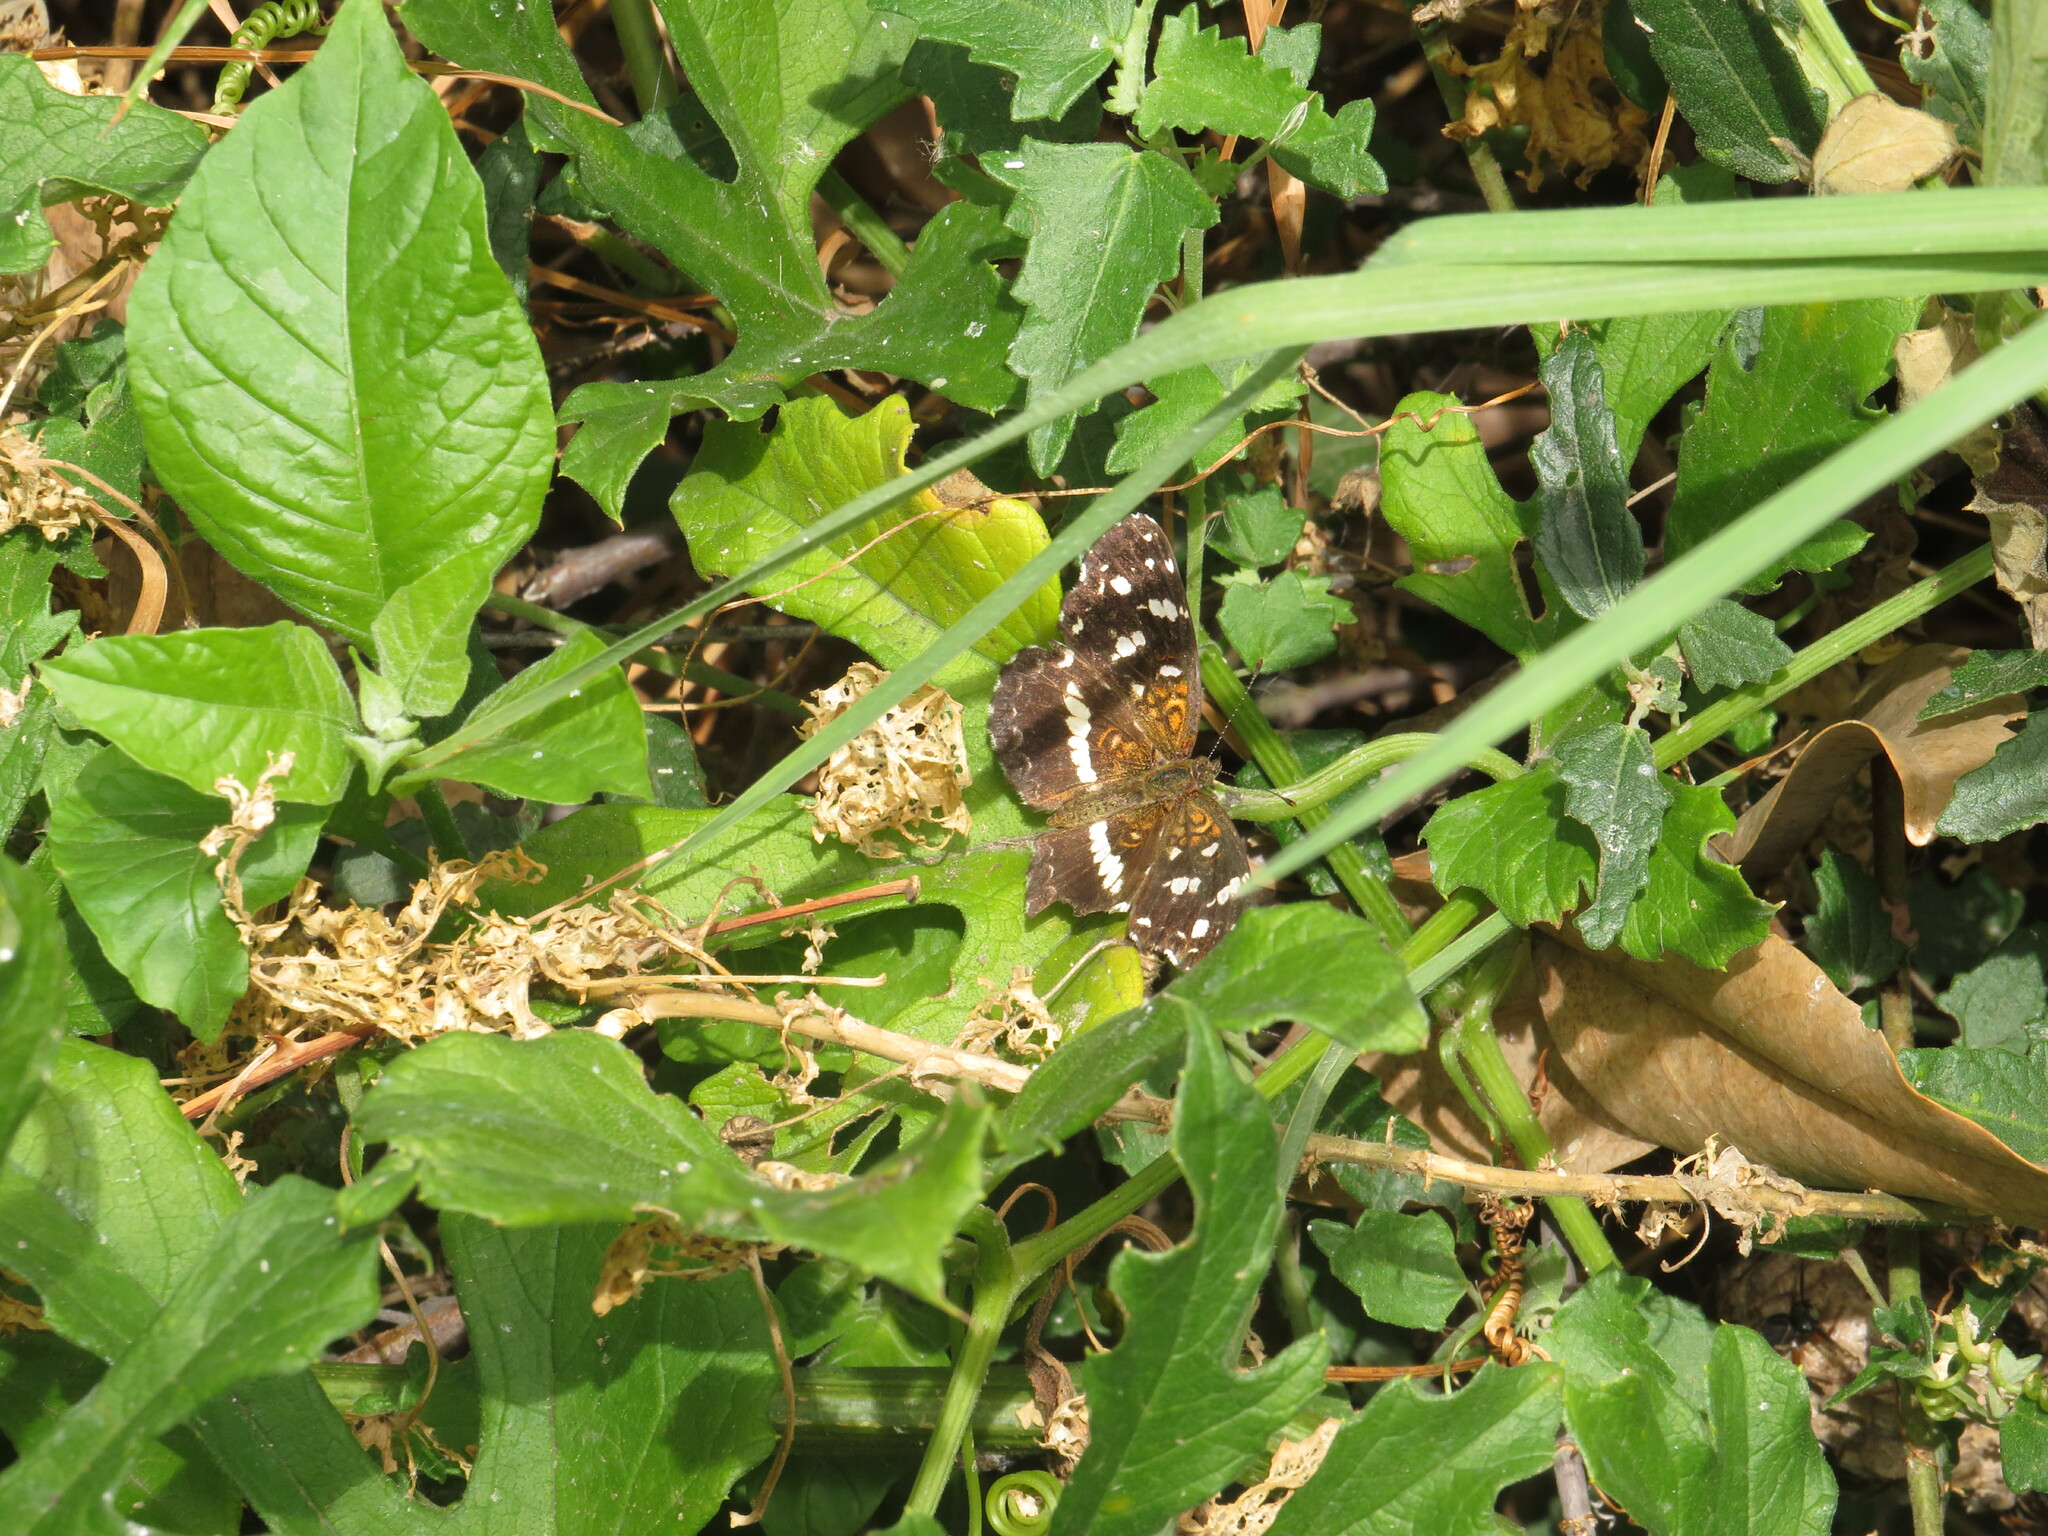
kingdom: Animalia
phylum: Arthropoda
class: Insecta
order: Lepidoptera
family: Nymphalidae
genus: Ortilia
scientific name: Ortilia ithra
